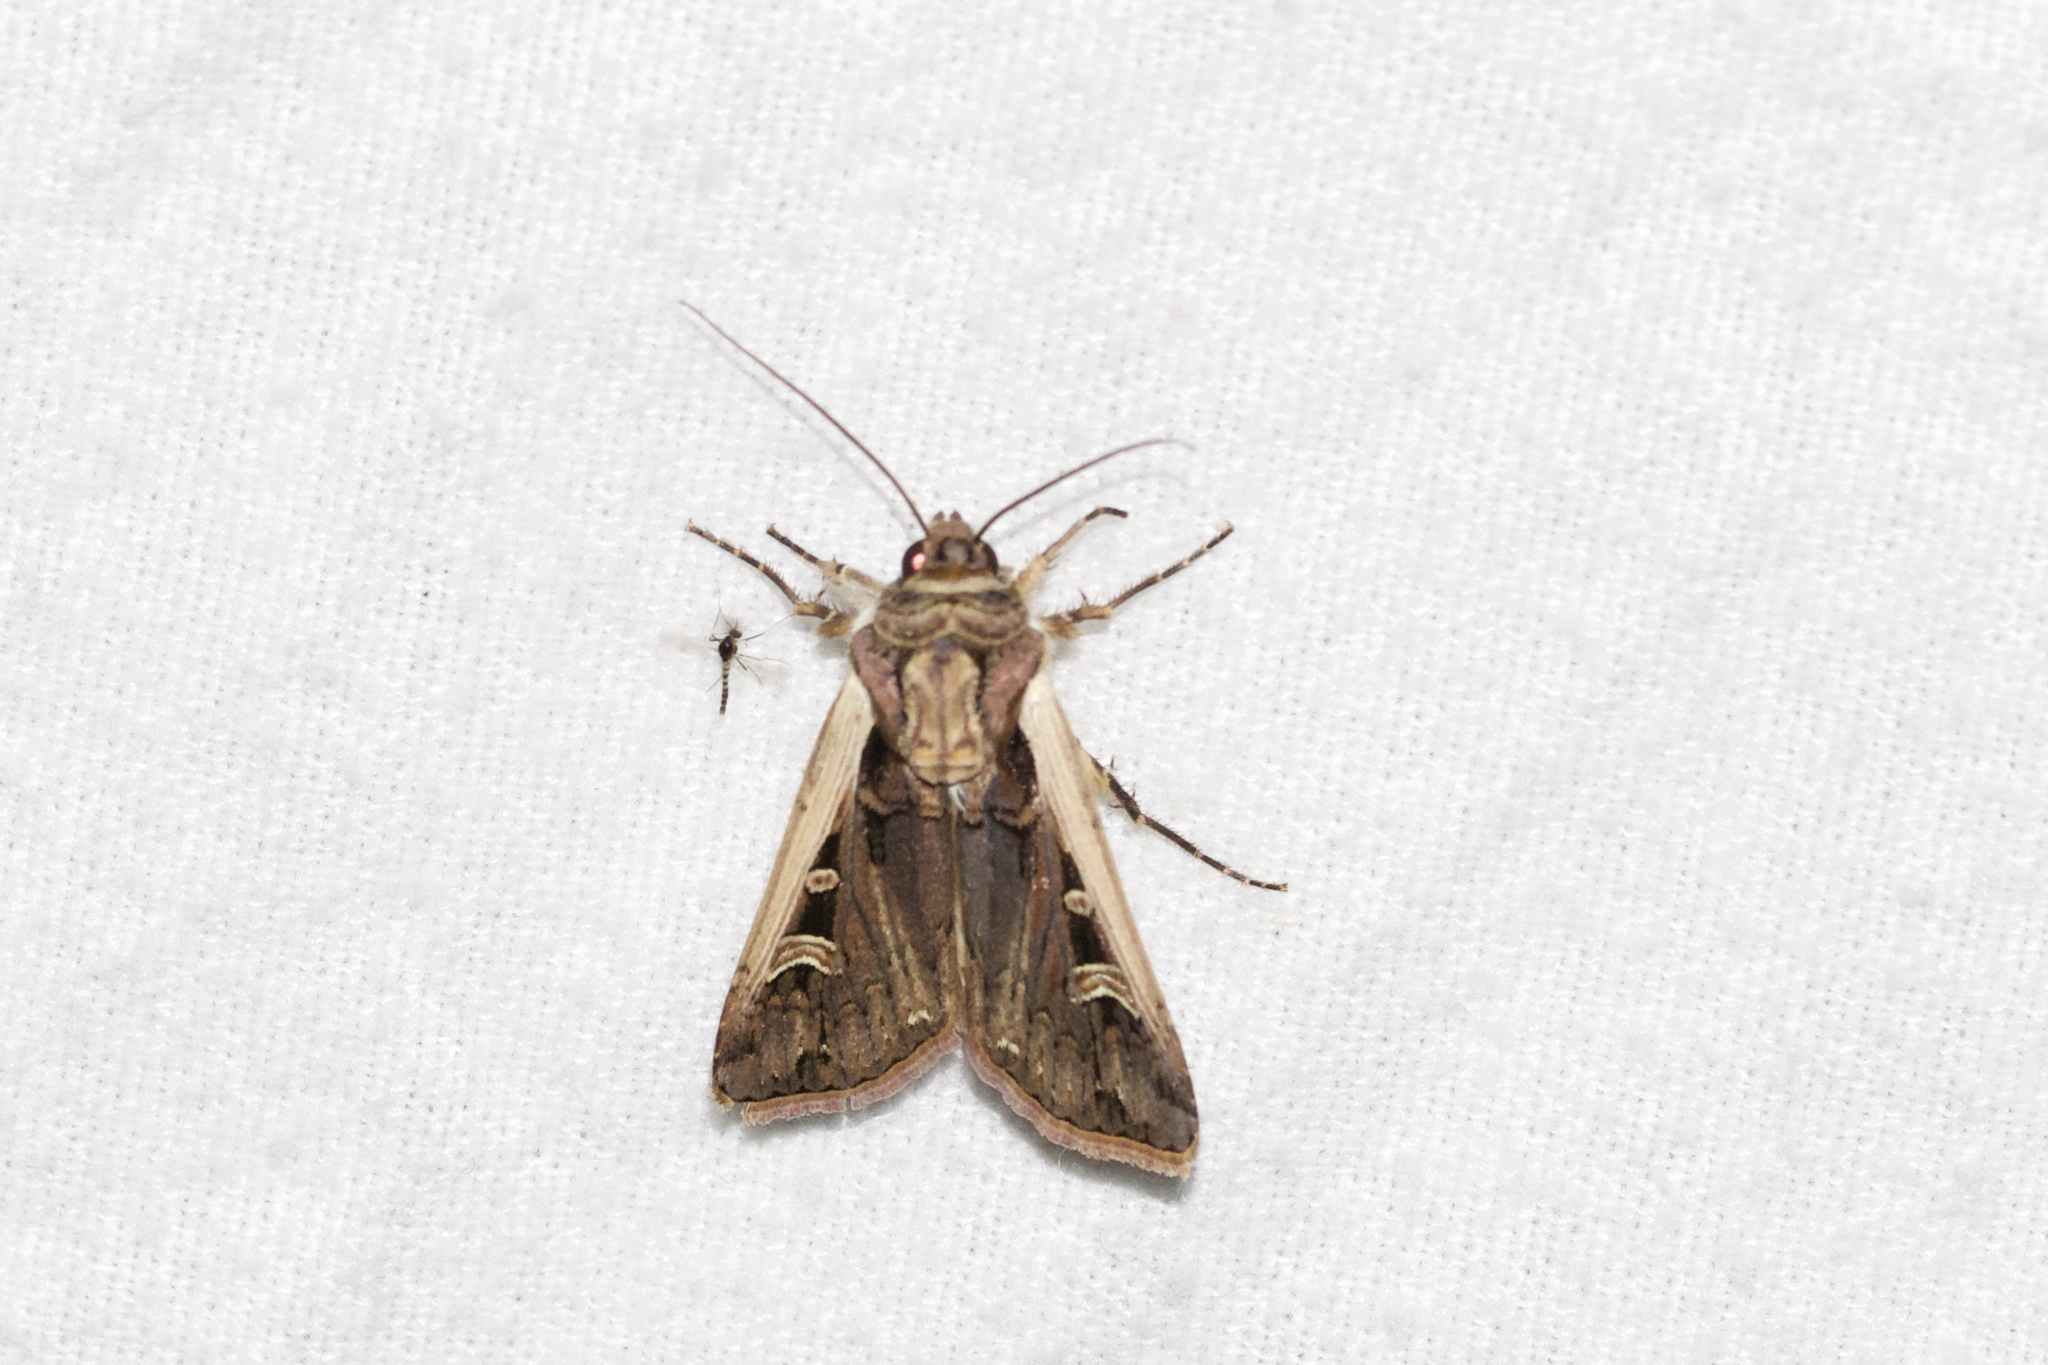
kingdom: Animalia
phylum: Arthropoda
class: Insecta
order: Lepidoptera
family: Noctuidae
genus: Striacosta
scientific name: Striacosta albicosta
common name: Western bean cutworm moth
